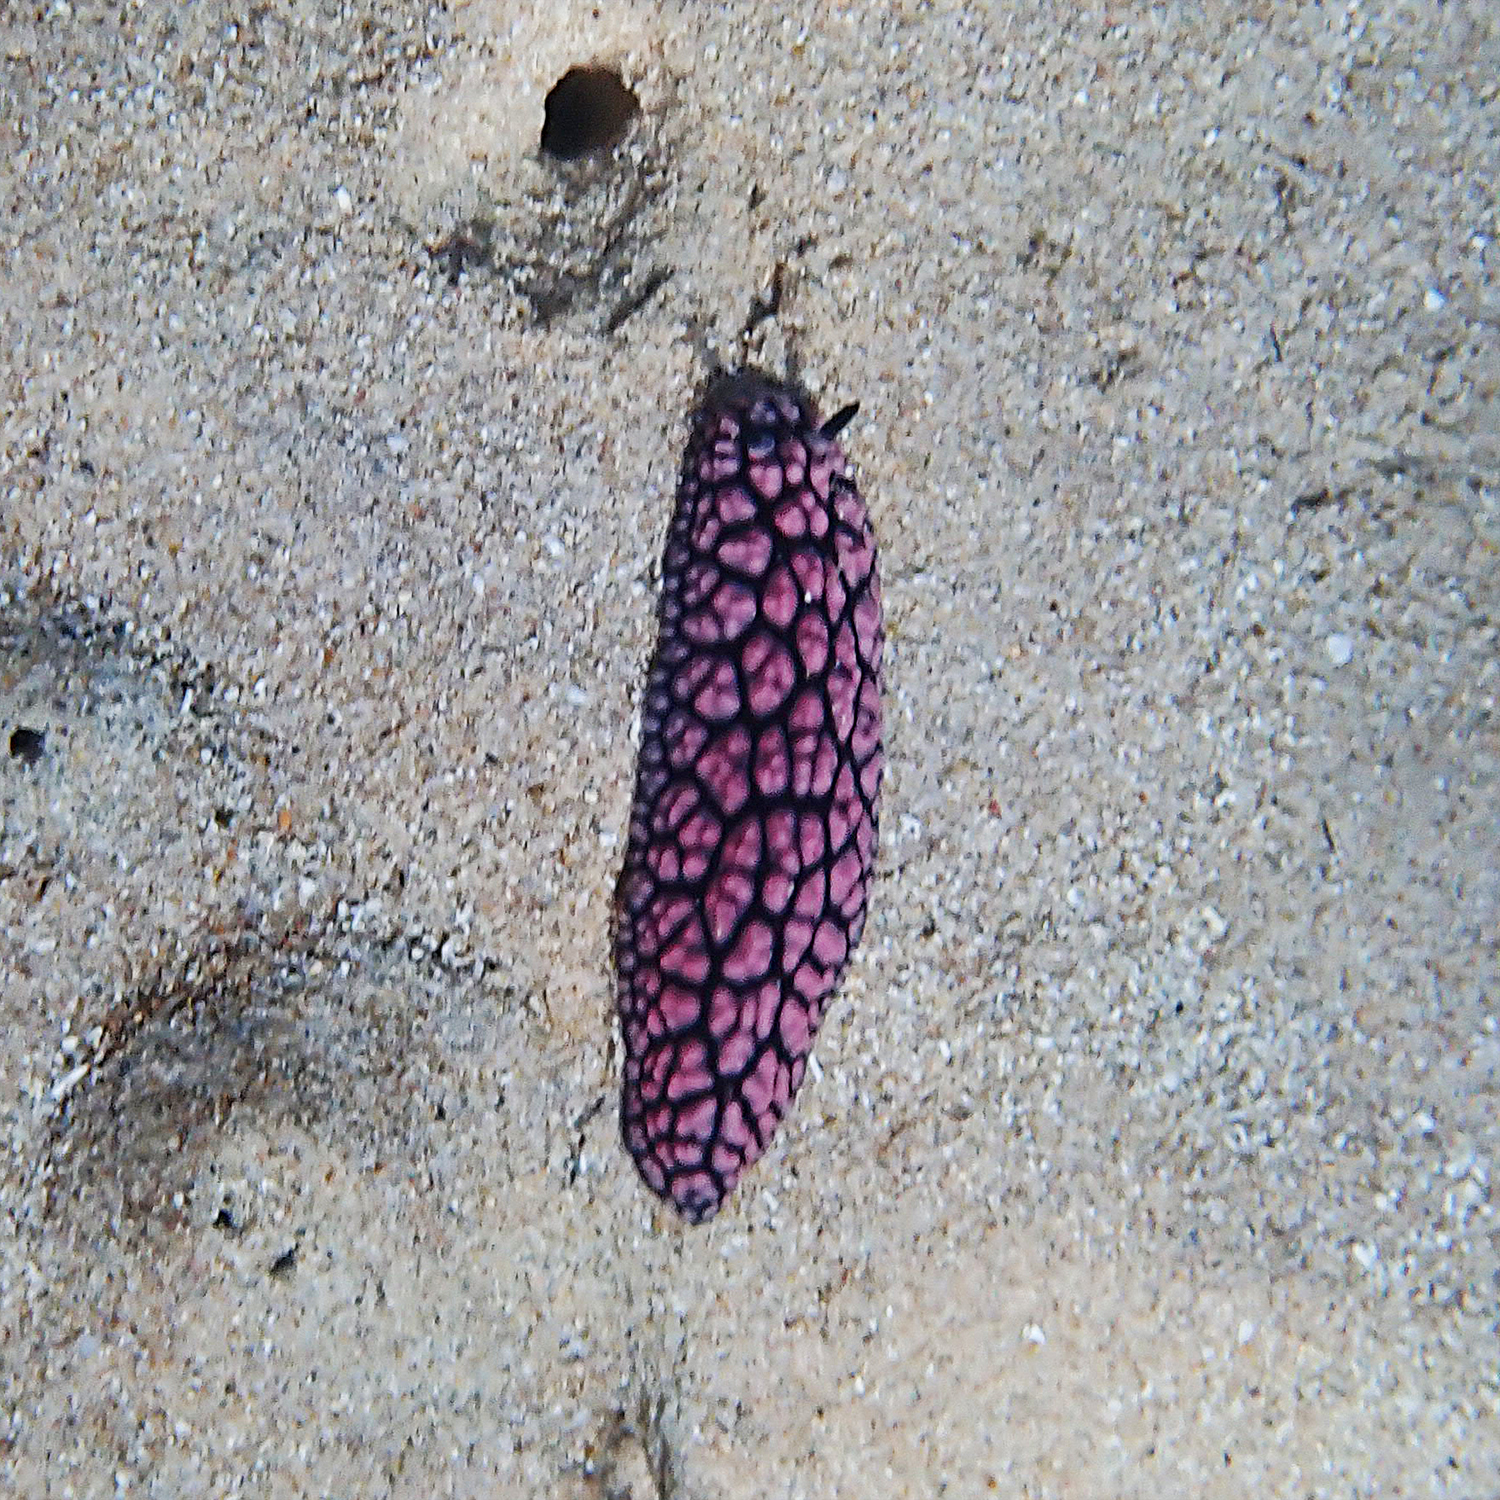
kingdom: Animalia
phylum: Mollusca
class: Gastropoda
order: Nudibranchia
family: Phyllidiidae
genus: Phyllidiella
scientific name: Phyllidiella pustulosa
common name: Pustular phyllidia
